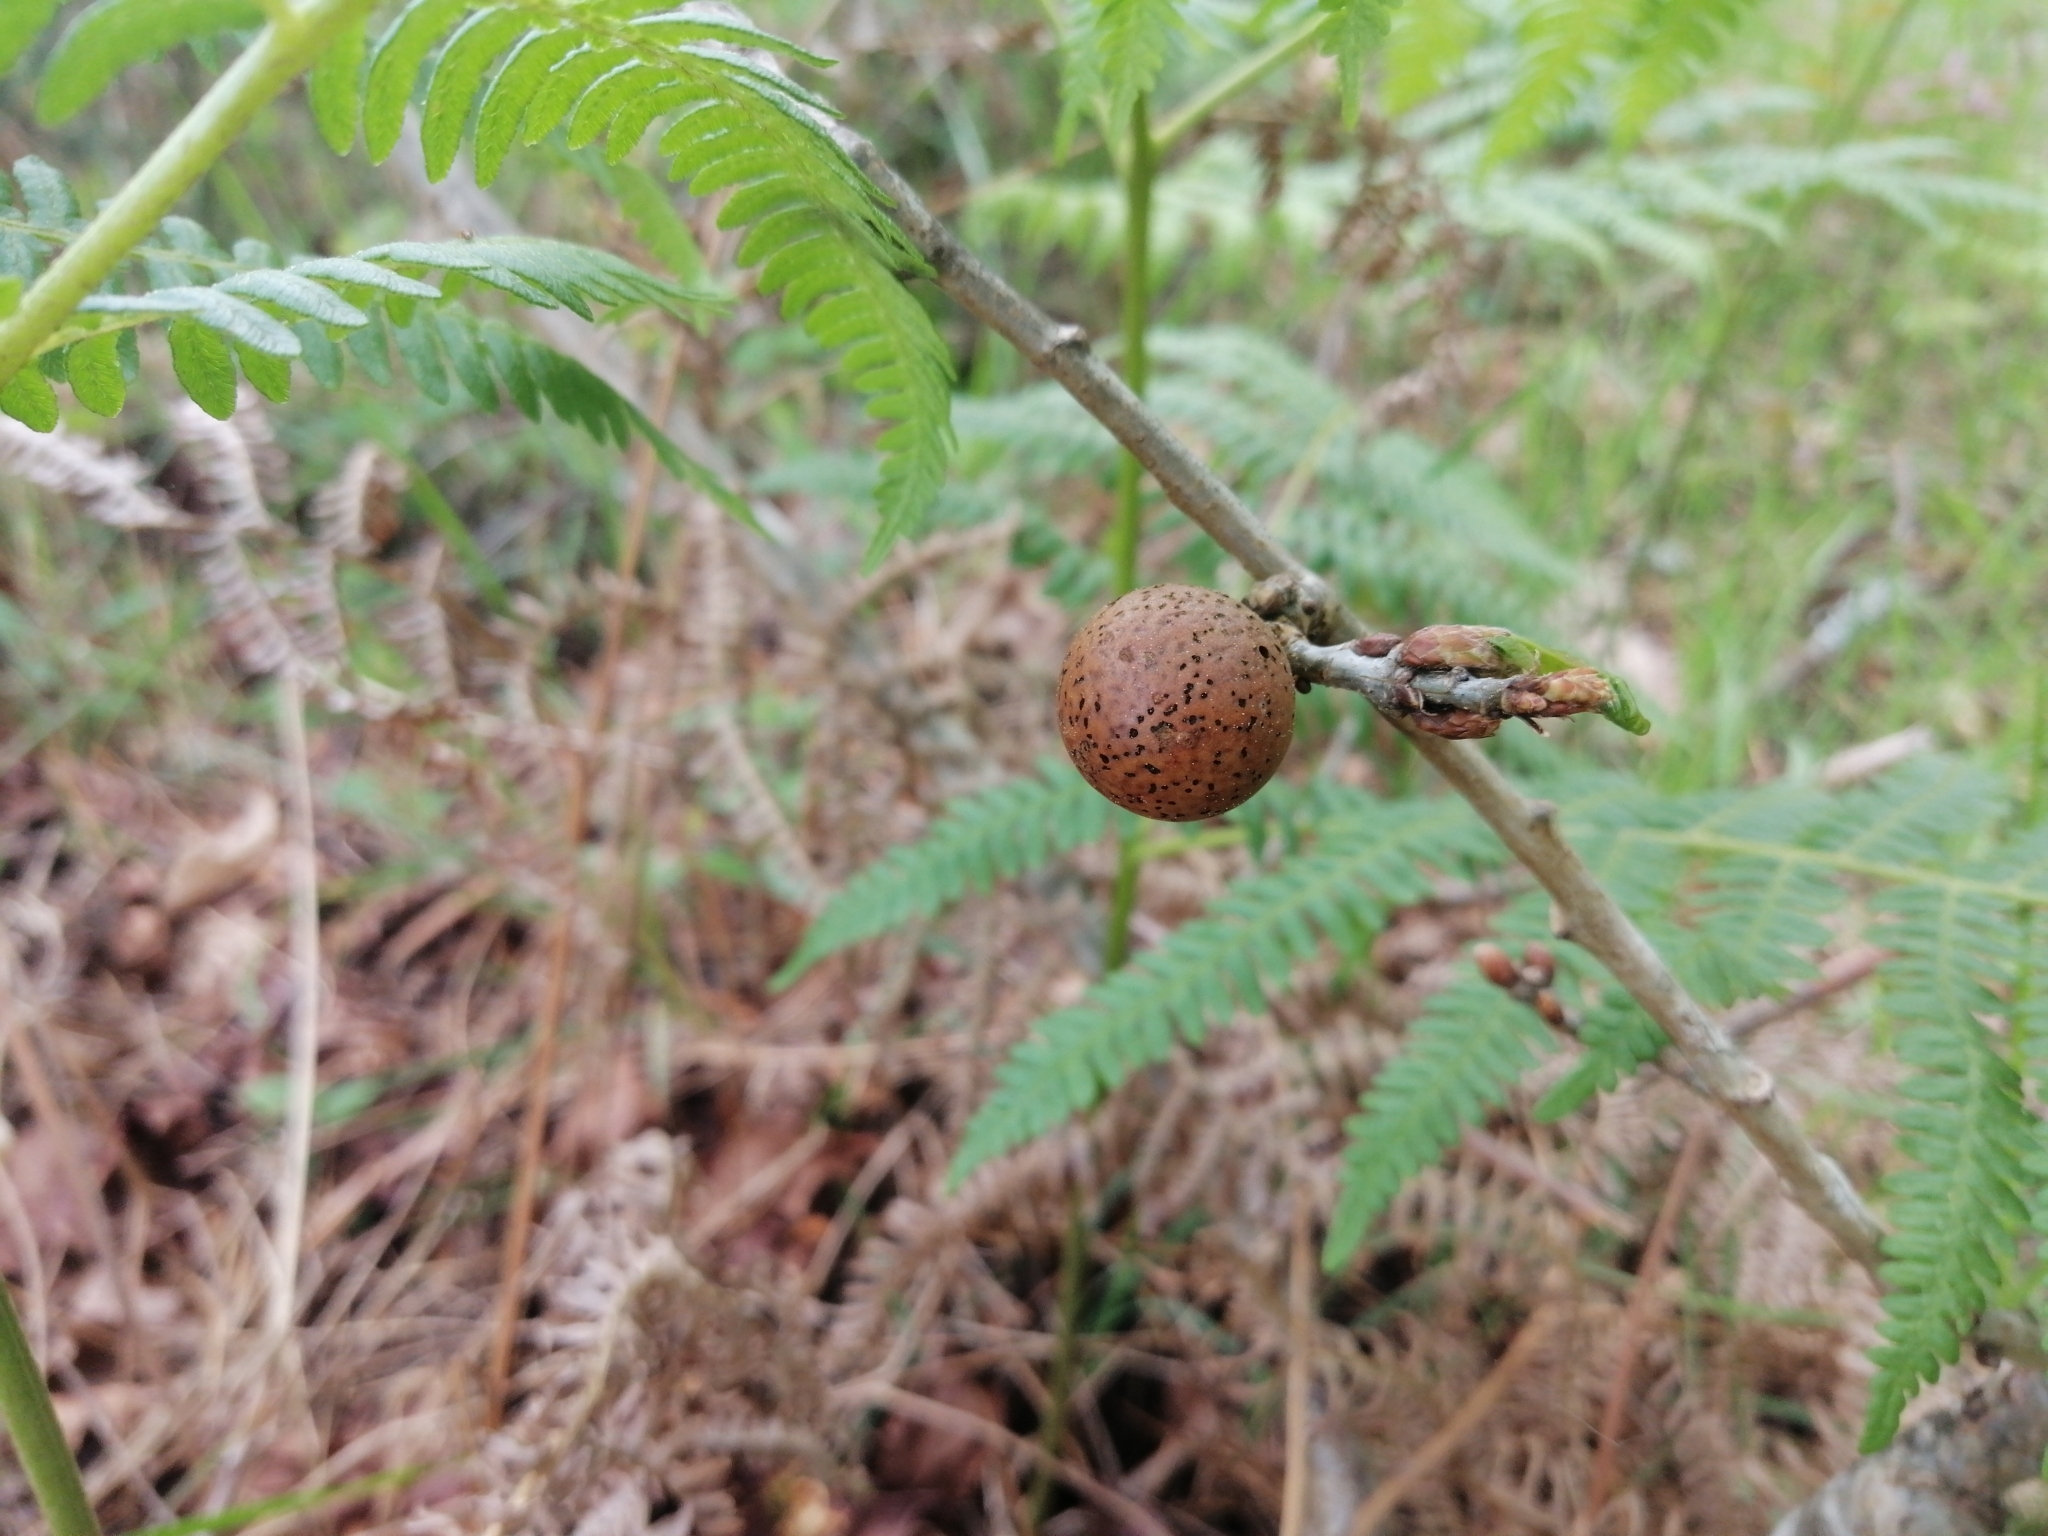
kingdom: Animalia
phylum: Arthropoda
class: Insecta
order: Hymenoptera
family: Cynipidae
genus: Andricus
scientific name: Andricus kollari
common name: Marble gall
